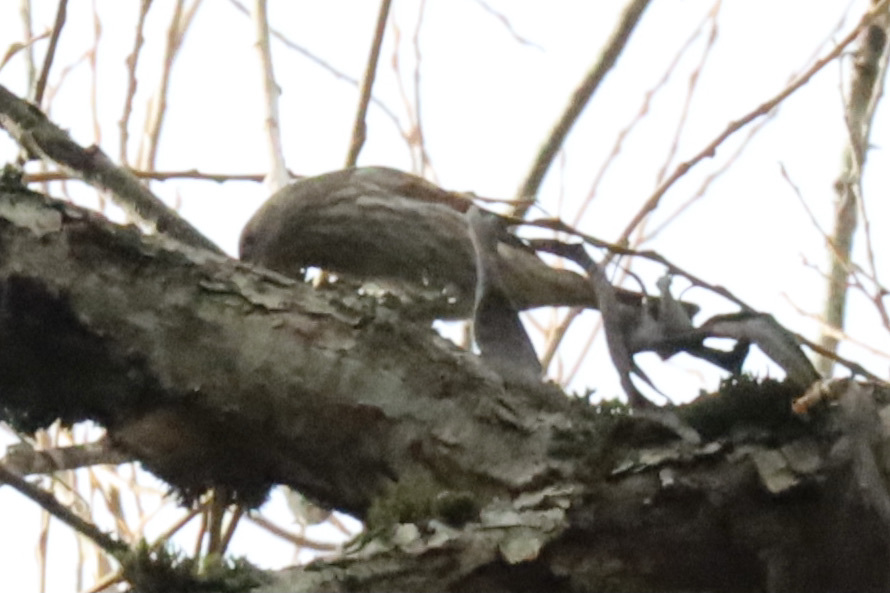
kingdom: Animalia
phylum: Chordata
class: Aves
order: Passeriformes
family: Fringillidae
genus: Haemorhous
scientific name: Haemorhous mexicanus
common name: House finch
